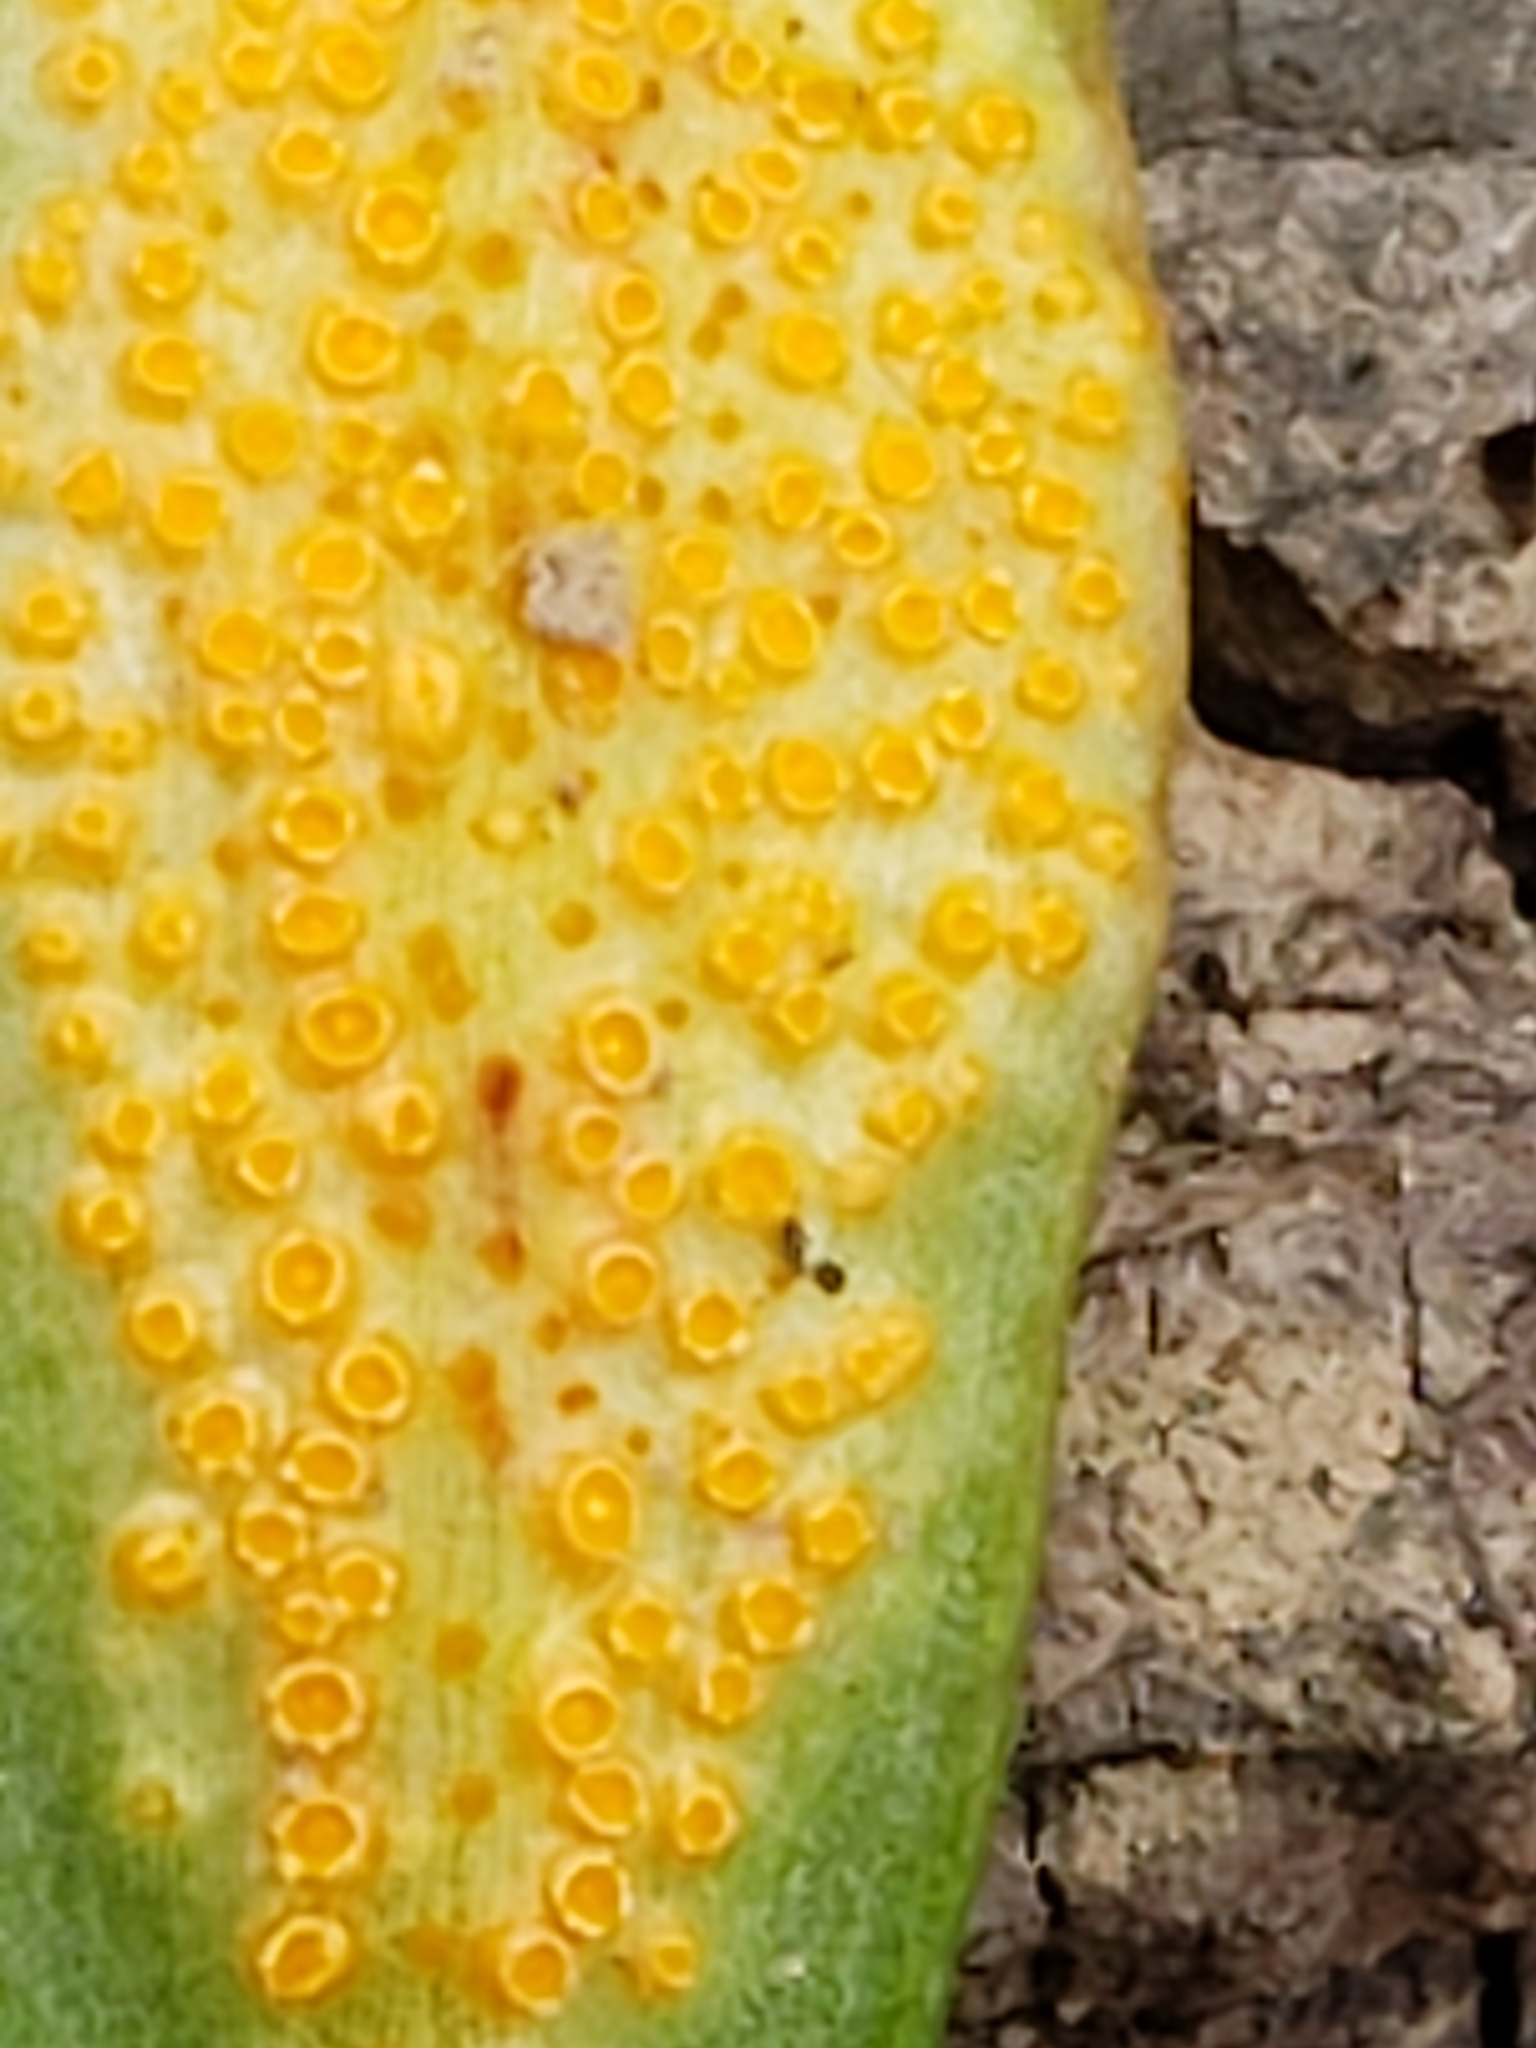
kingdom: Fungi
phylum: Basidiomycota
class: Pucciniomycetes
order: Pucciniales
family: Pucciniaceae
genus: Puccinia
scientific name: Puccinia mariae-wilsoniae
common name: Spring beauty rust
